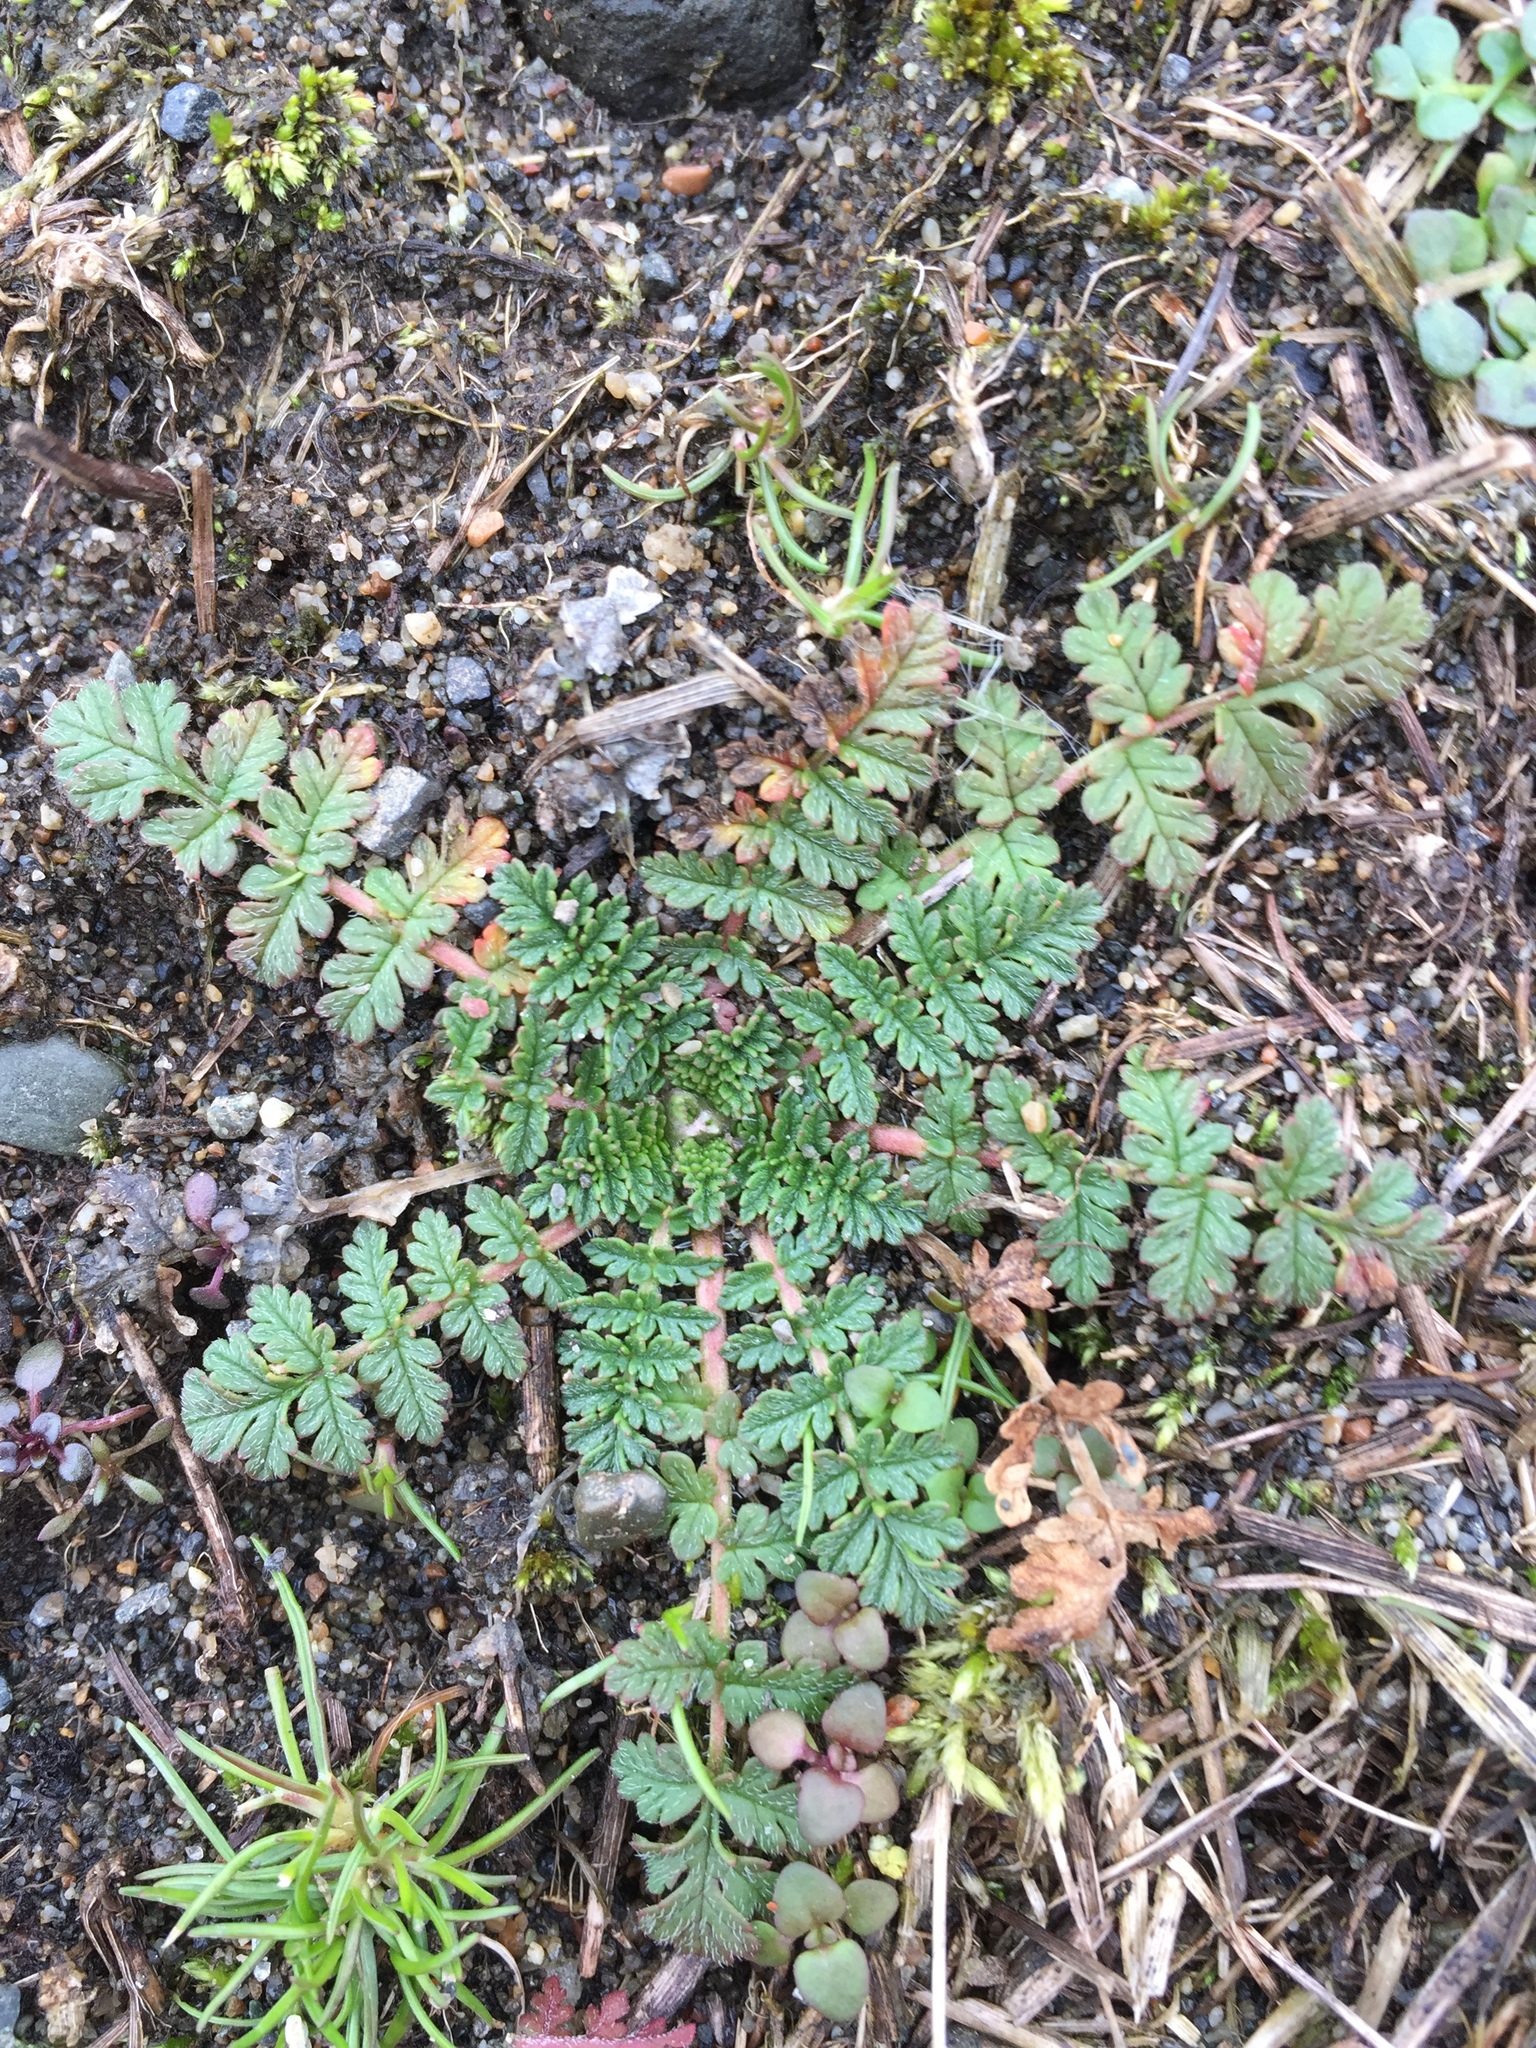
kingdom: Plantae
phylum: Tracheophyta
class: Magnoliopsida
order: Geraniales
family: Geraniaceae
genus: Erodium
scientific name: Erodium cicutarium
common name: Common stork's-bill
